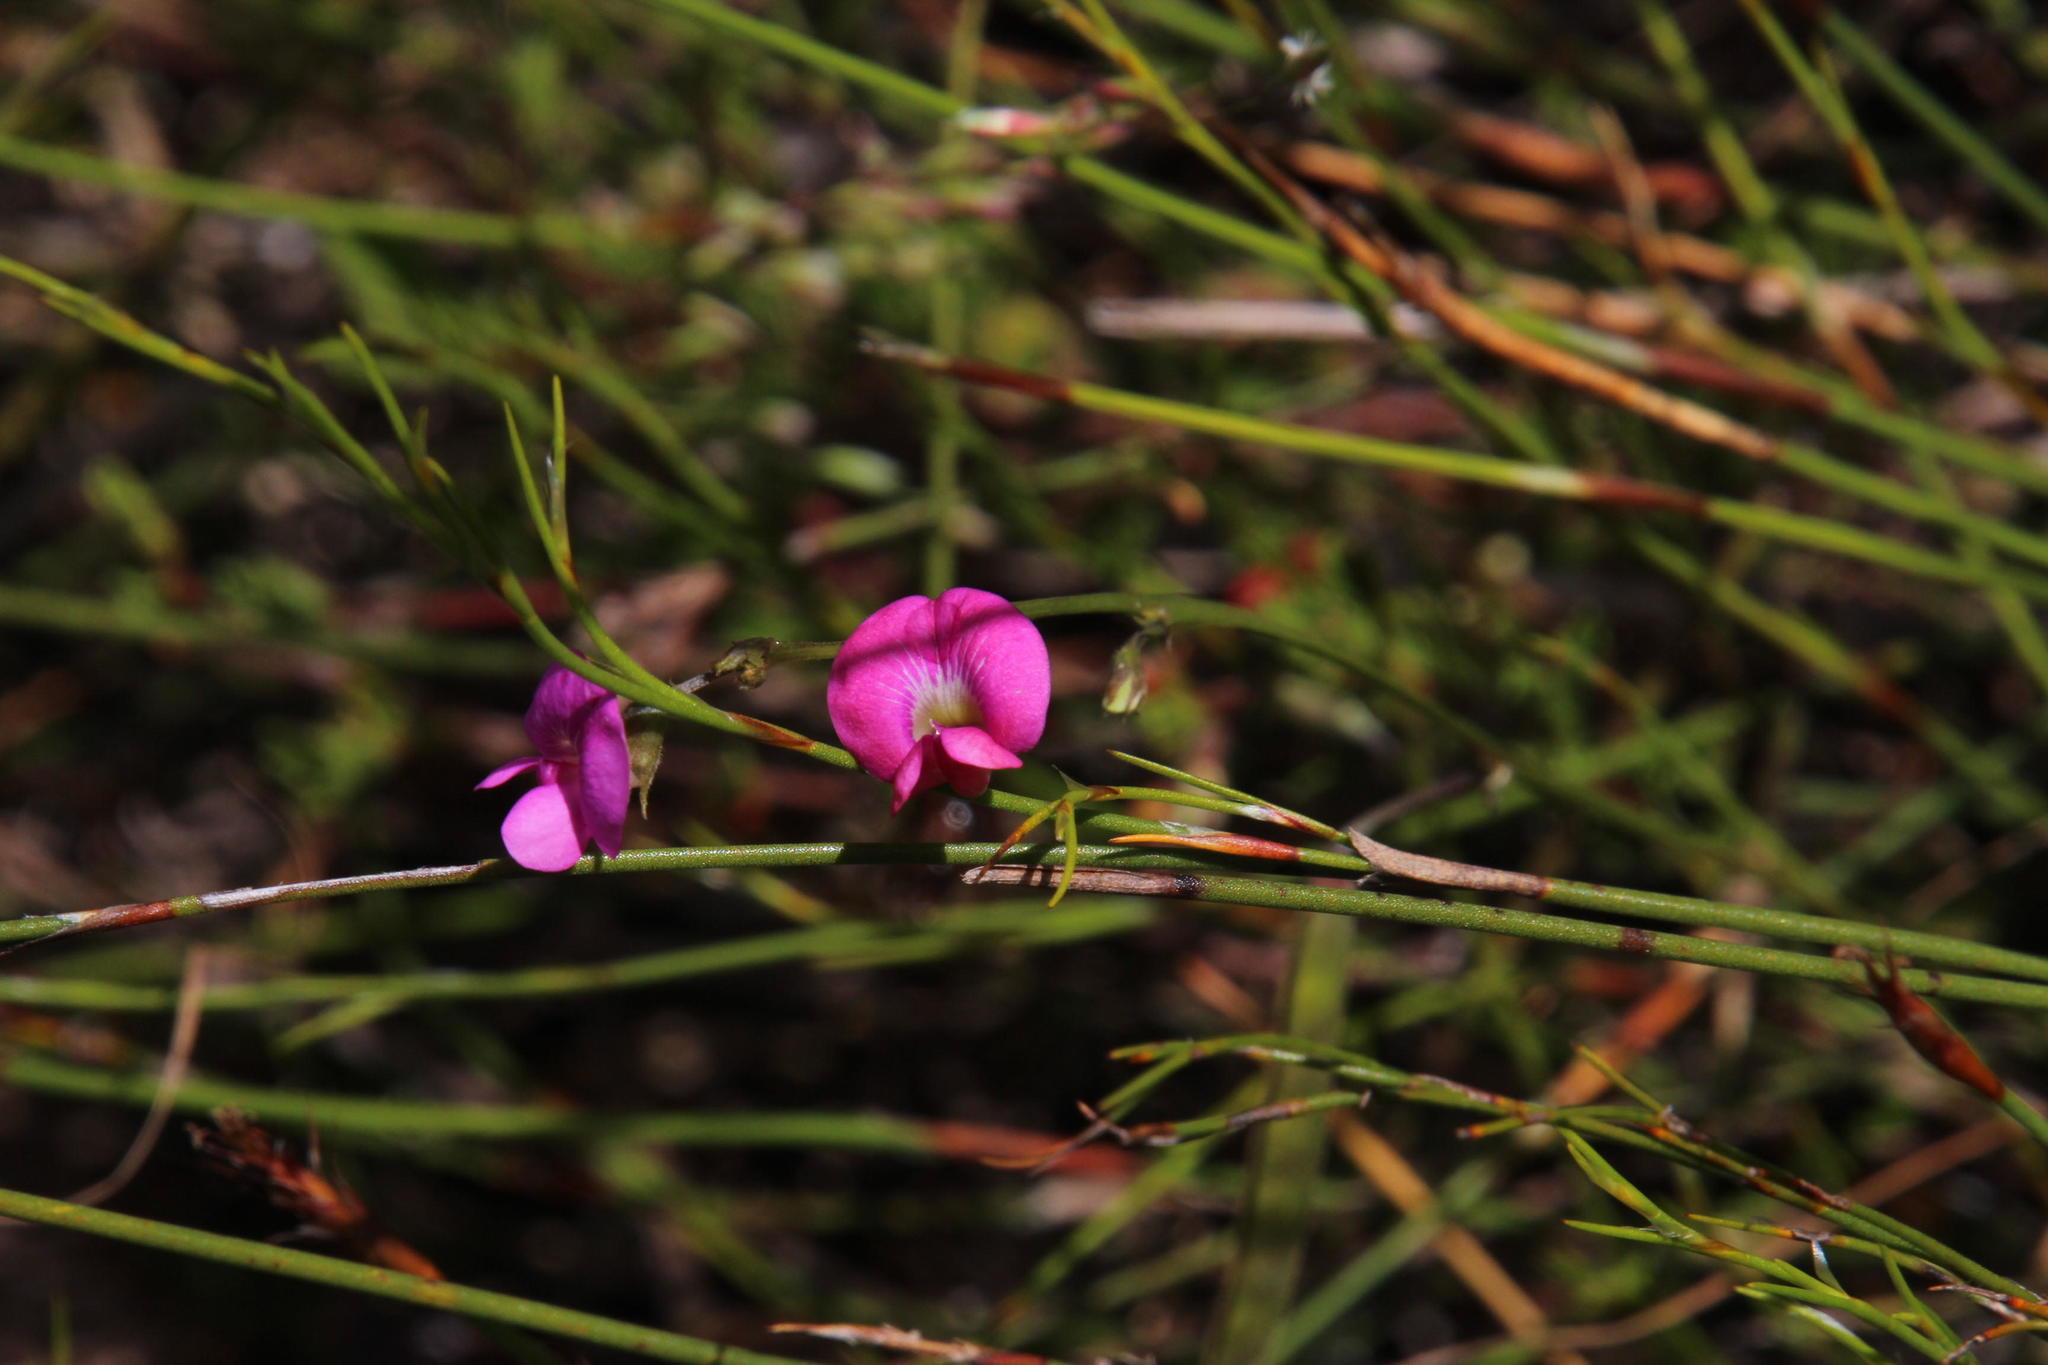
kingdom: Plantae
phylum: Tracheophyta
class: Magnoliopsida
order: Fabales
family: Fabaceae
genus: Tephrosia
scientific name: Tephrosia capensis
